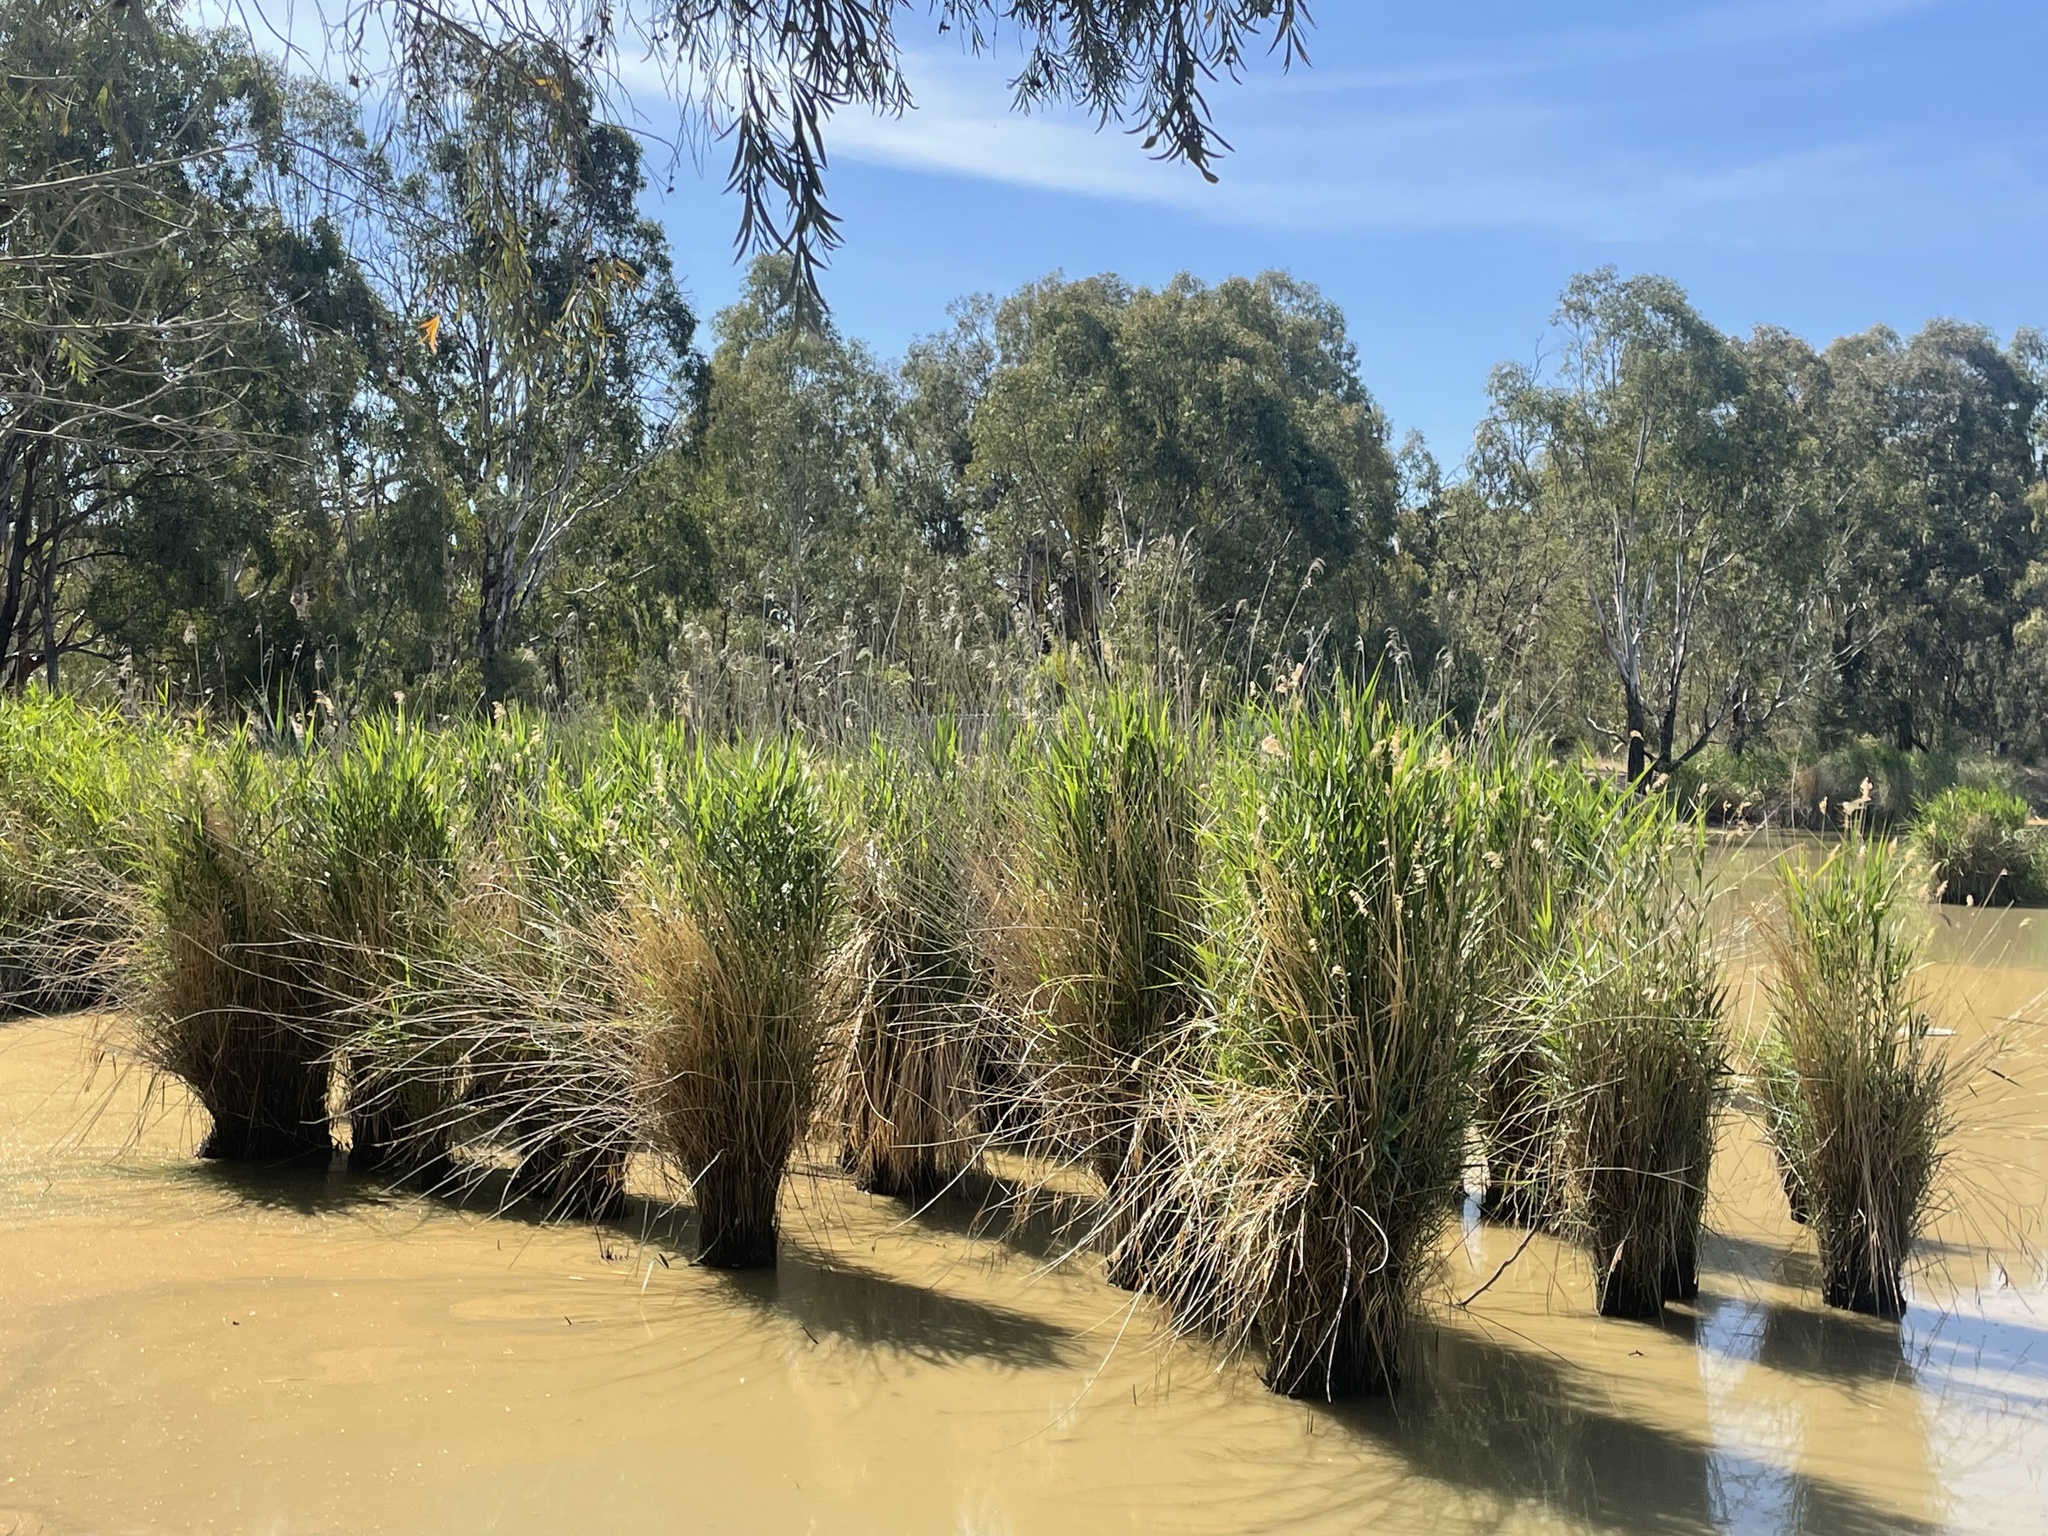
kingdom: Plantae
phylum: Tracheophyta
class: Liliopsida
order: Poales
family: Poaceae
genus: Phragmites
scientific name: Phragmites australis
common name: Common reed
